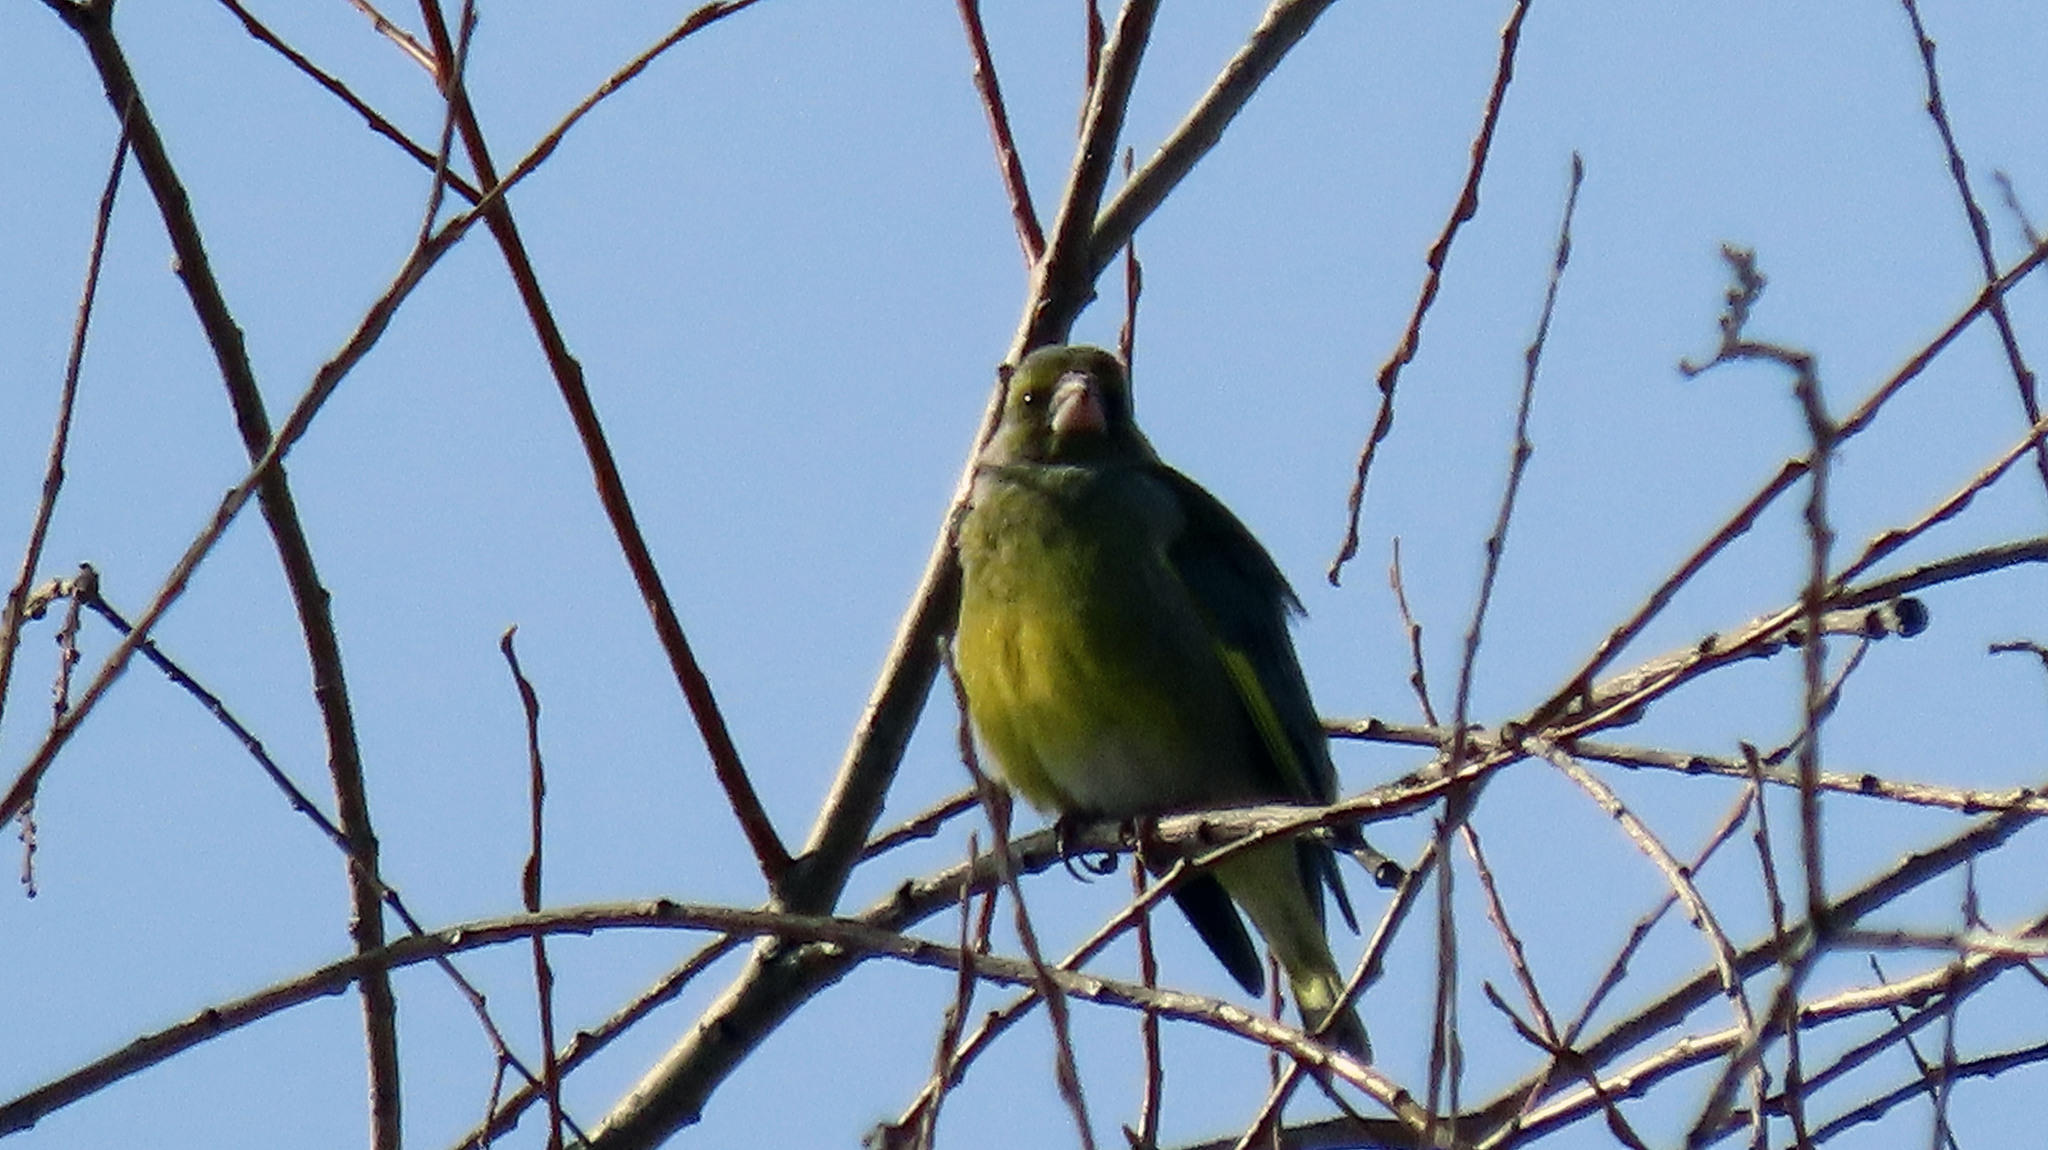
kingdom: Plantae
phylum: Tracheophyta
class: Liliopsida
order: Poales
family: Poaceae
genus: Chloris
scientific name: Chloris chloris
